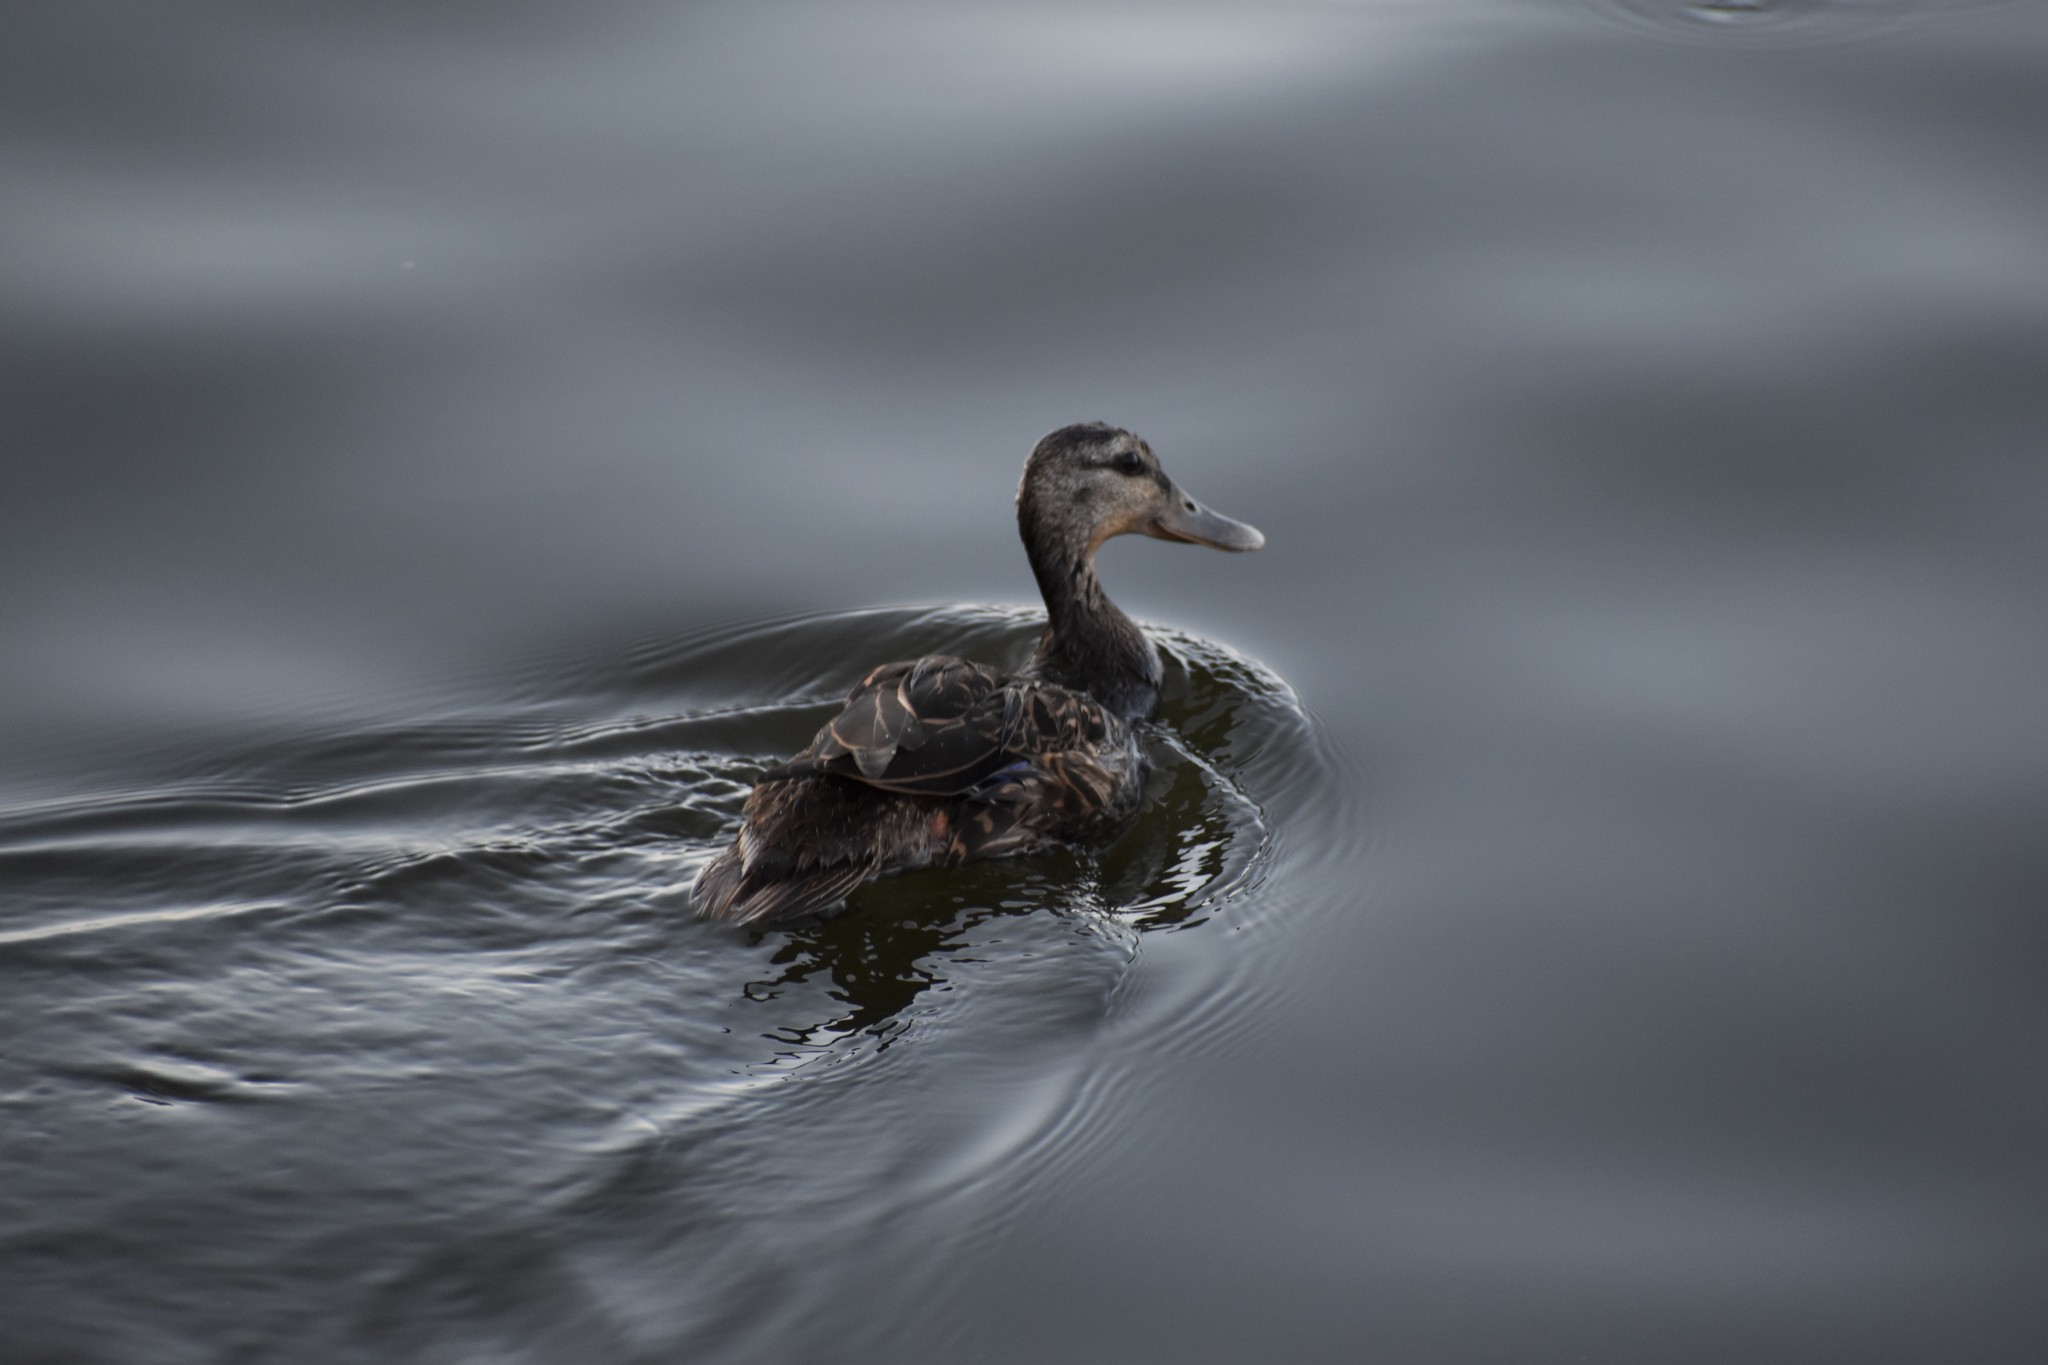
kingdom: Animalia
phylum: Chordata
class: Aves
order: Anseriformes
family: Anatidae
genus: Anas
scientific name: Anas fulvigula
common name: Mottled duck
